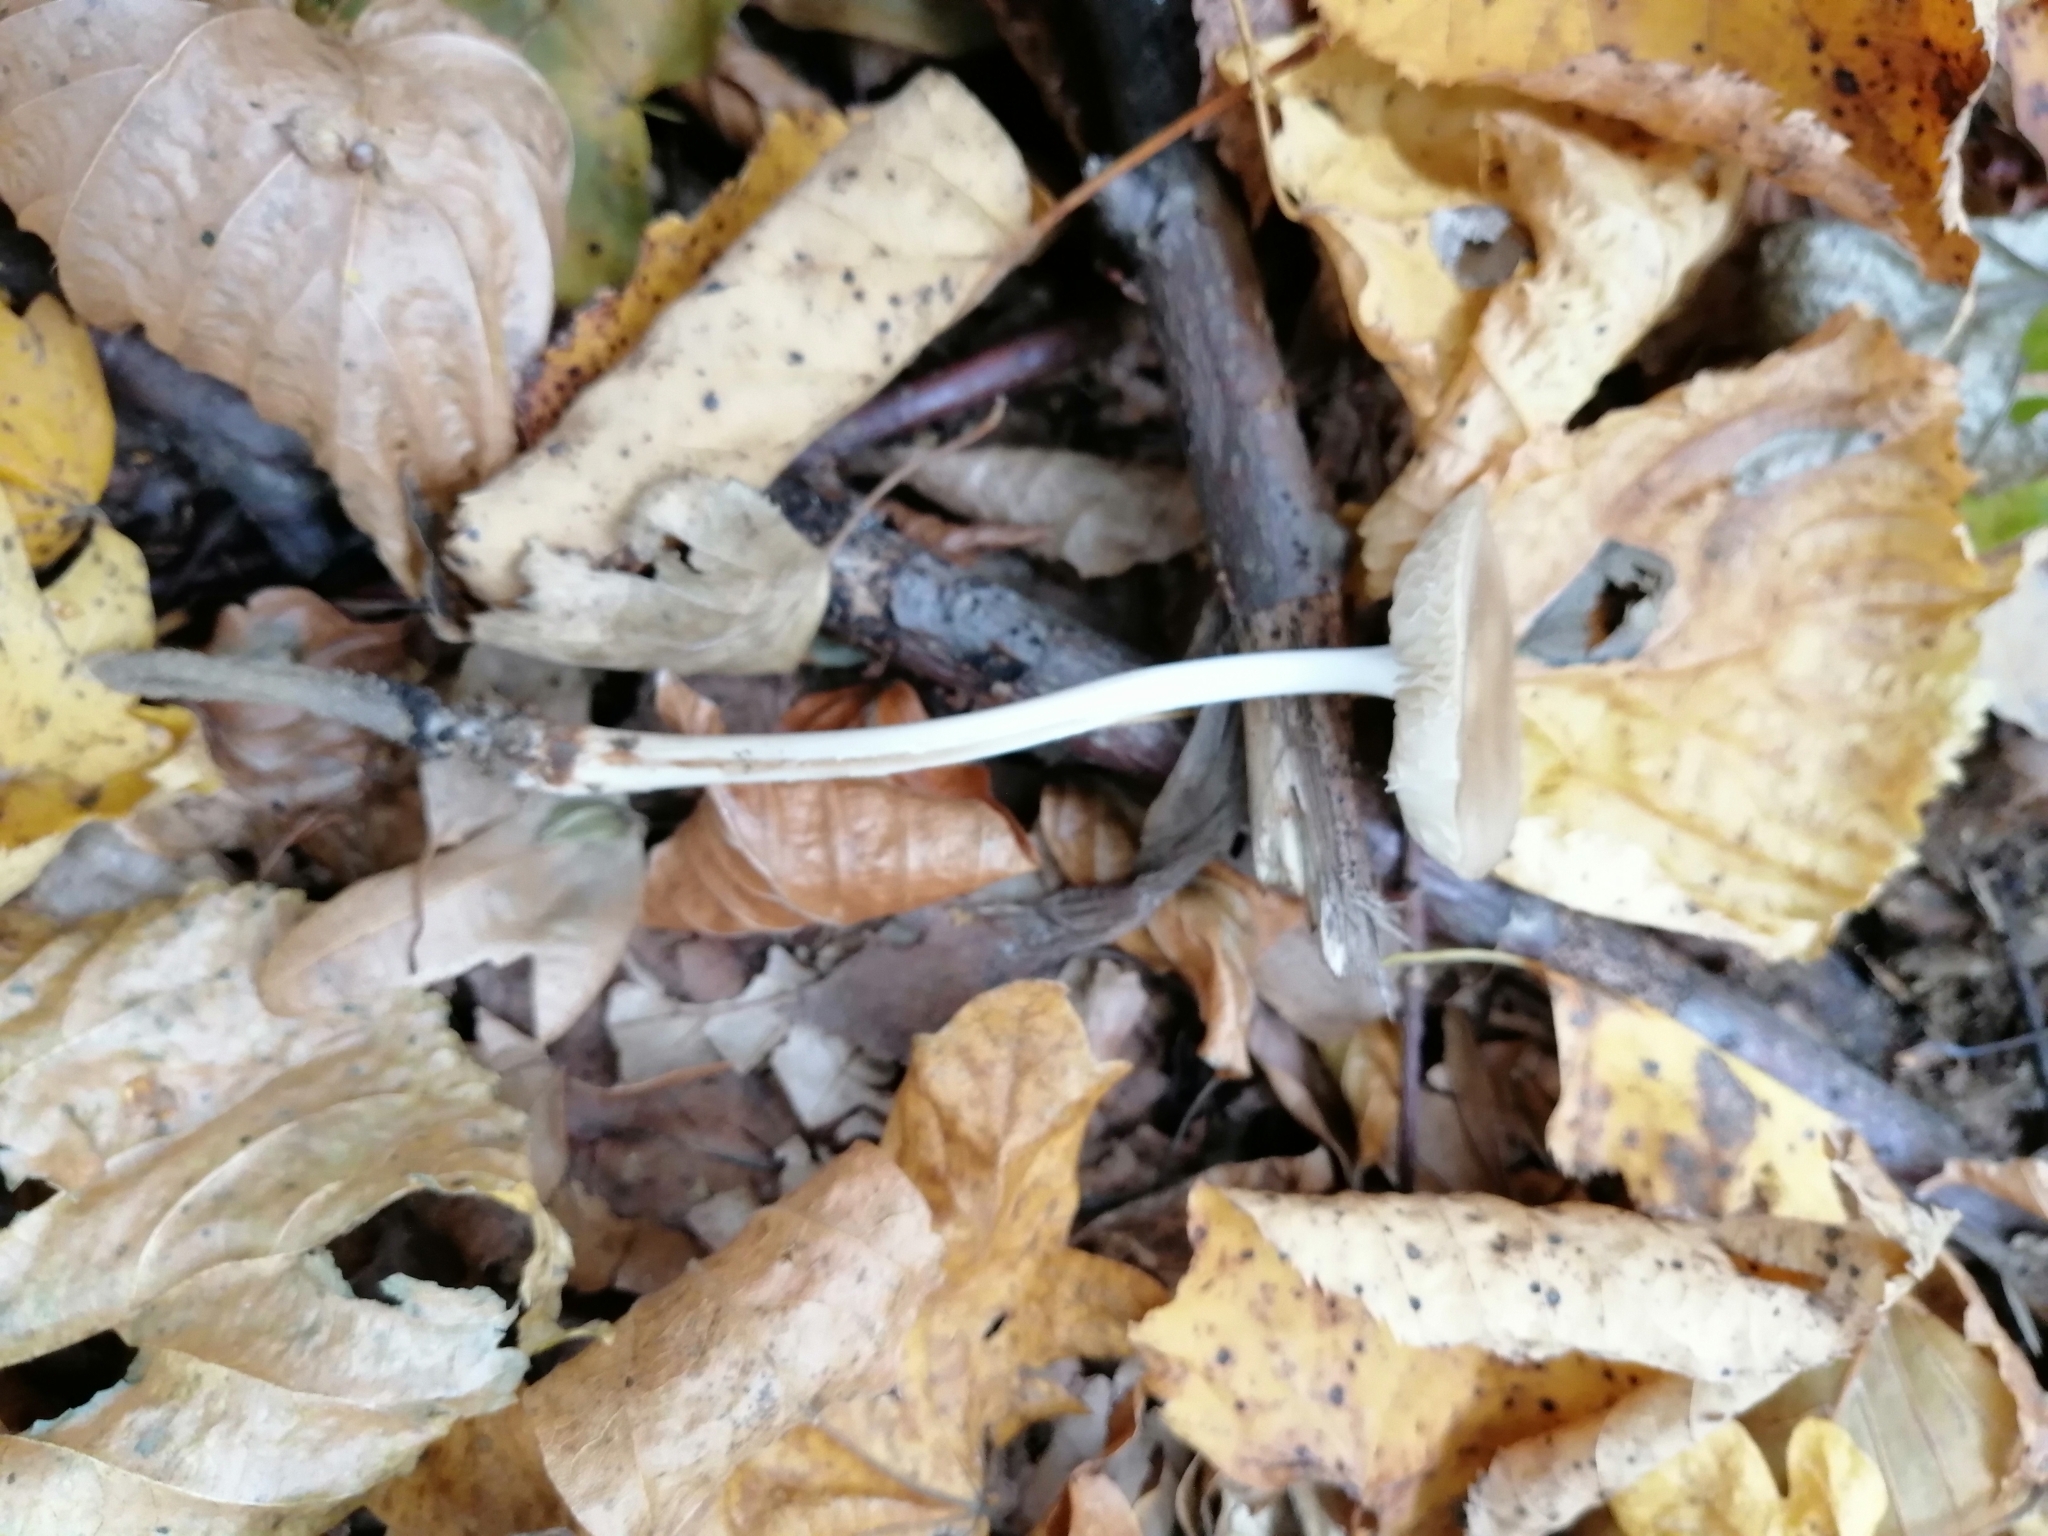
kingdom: Fungi
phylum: Basidiomycota
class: Agaricomycetes
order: Agaricales
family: Physalacriaceae
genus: Hymenopellis
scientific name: Hymenopellis radicata
